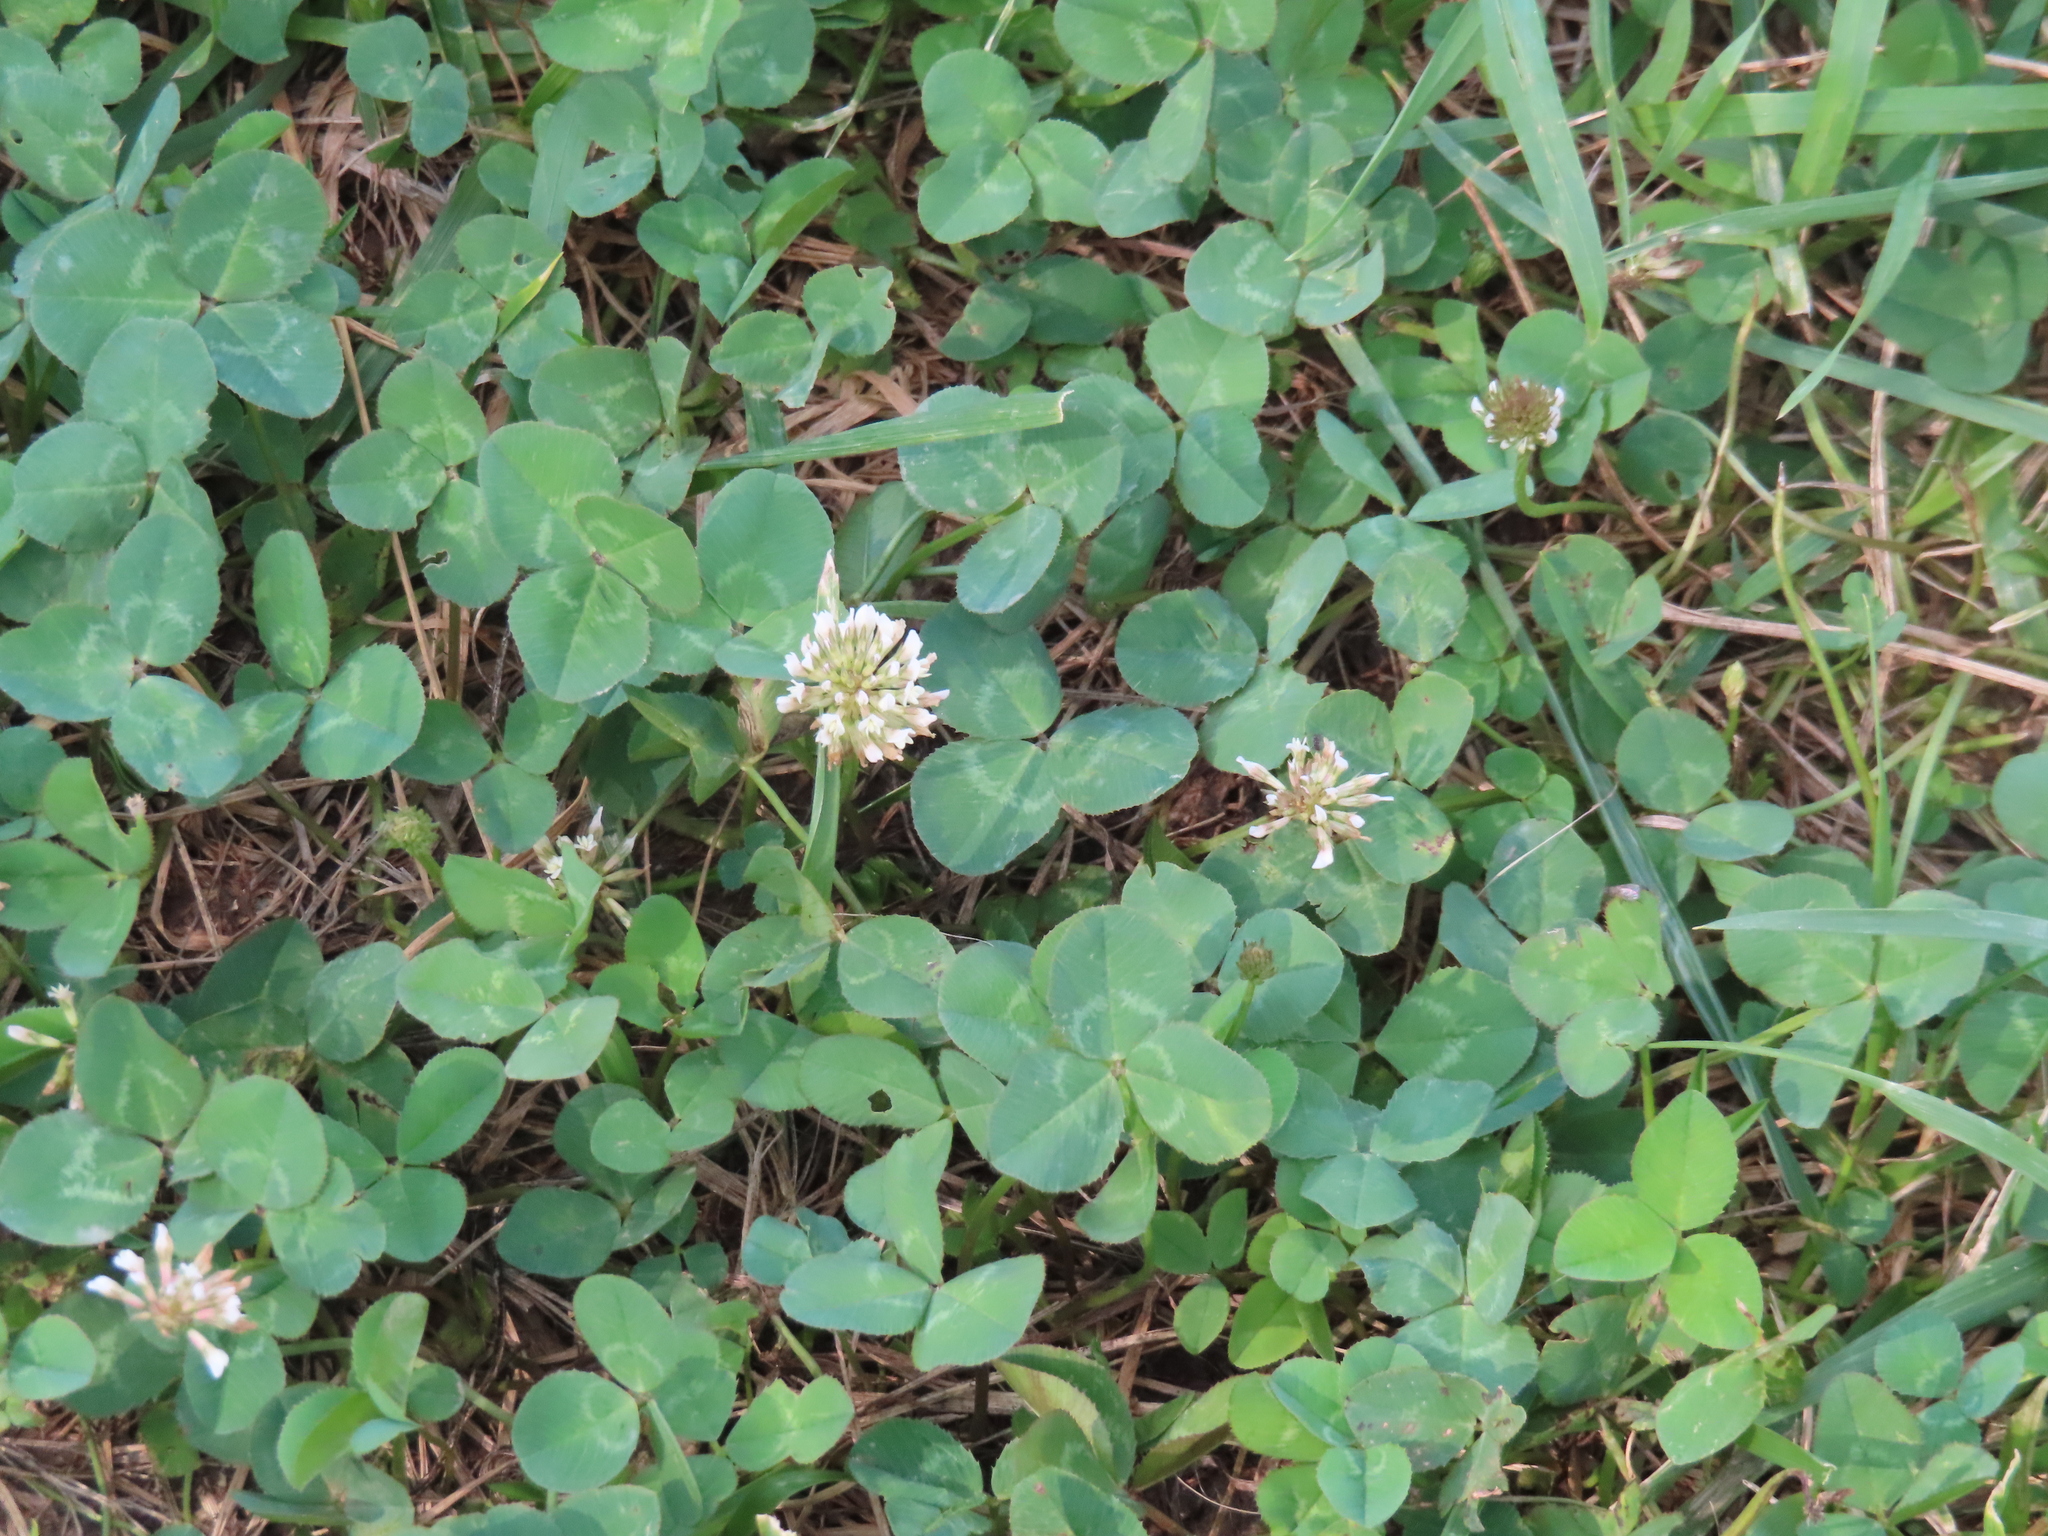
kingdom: Plantae
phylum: Tracheophyta
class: Magnoliopsida
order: Fabales
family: Fabaceae
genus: Trifolium
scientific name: Trifolium repens
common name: White clover
